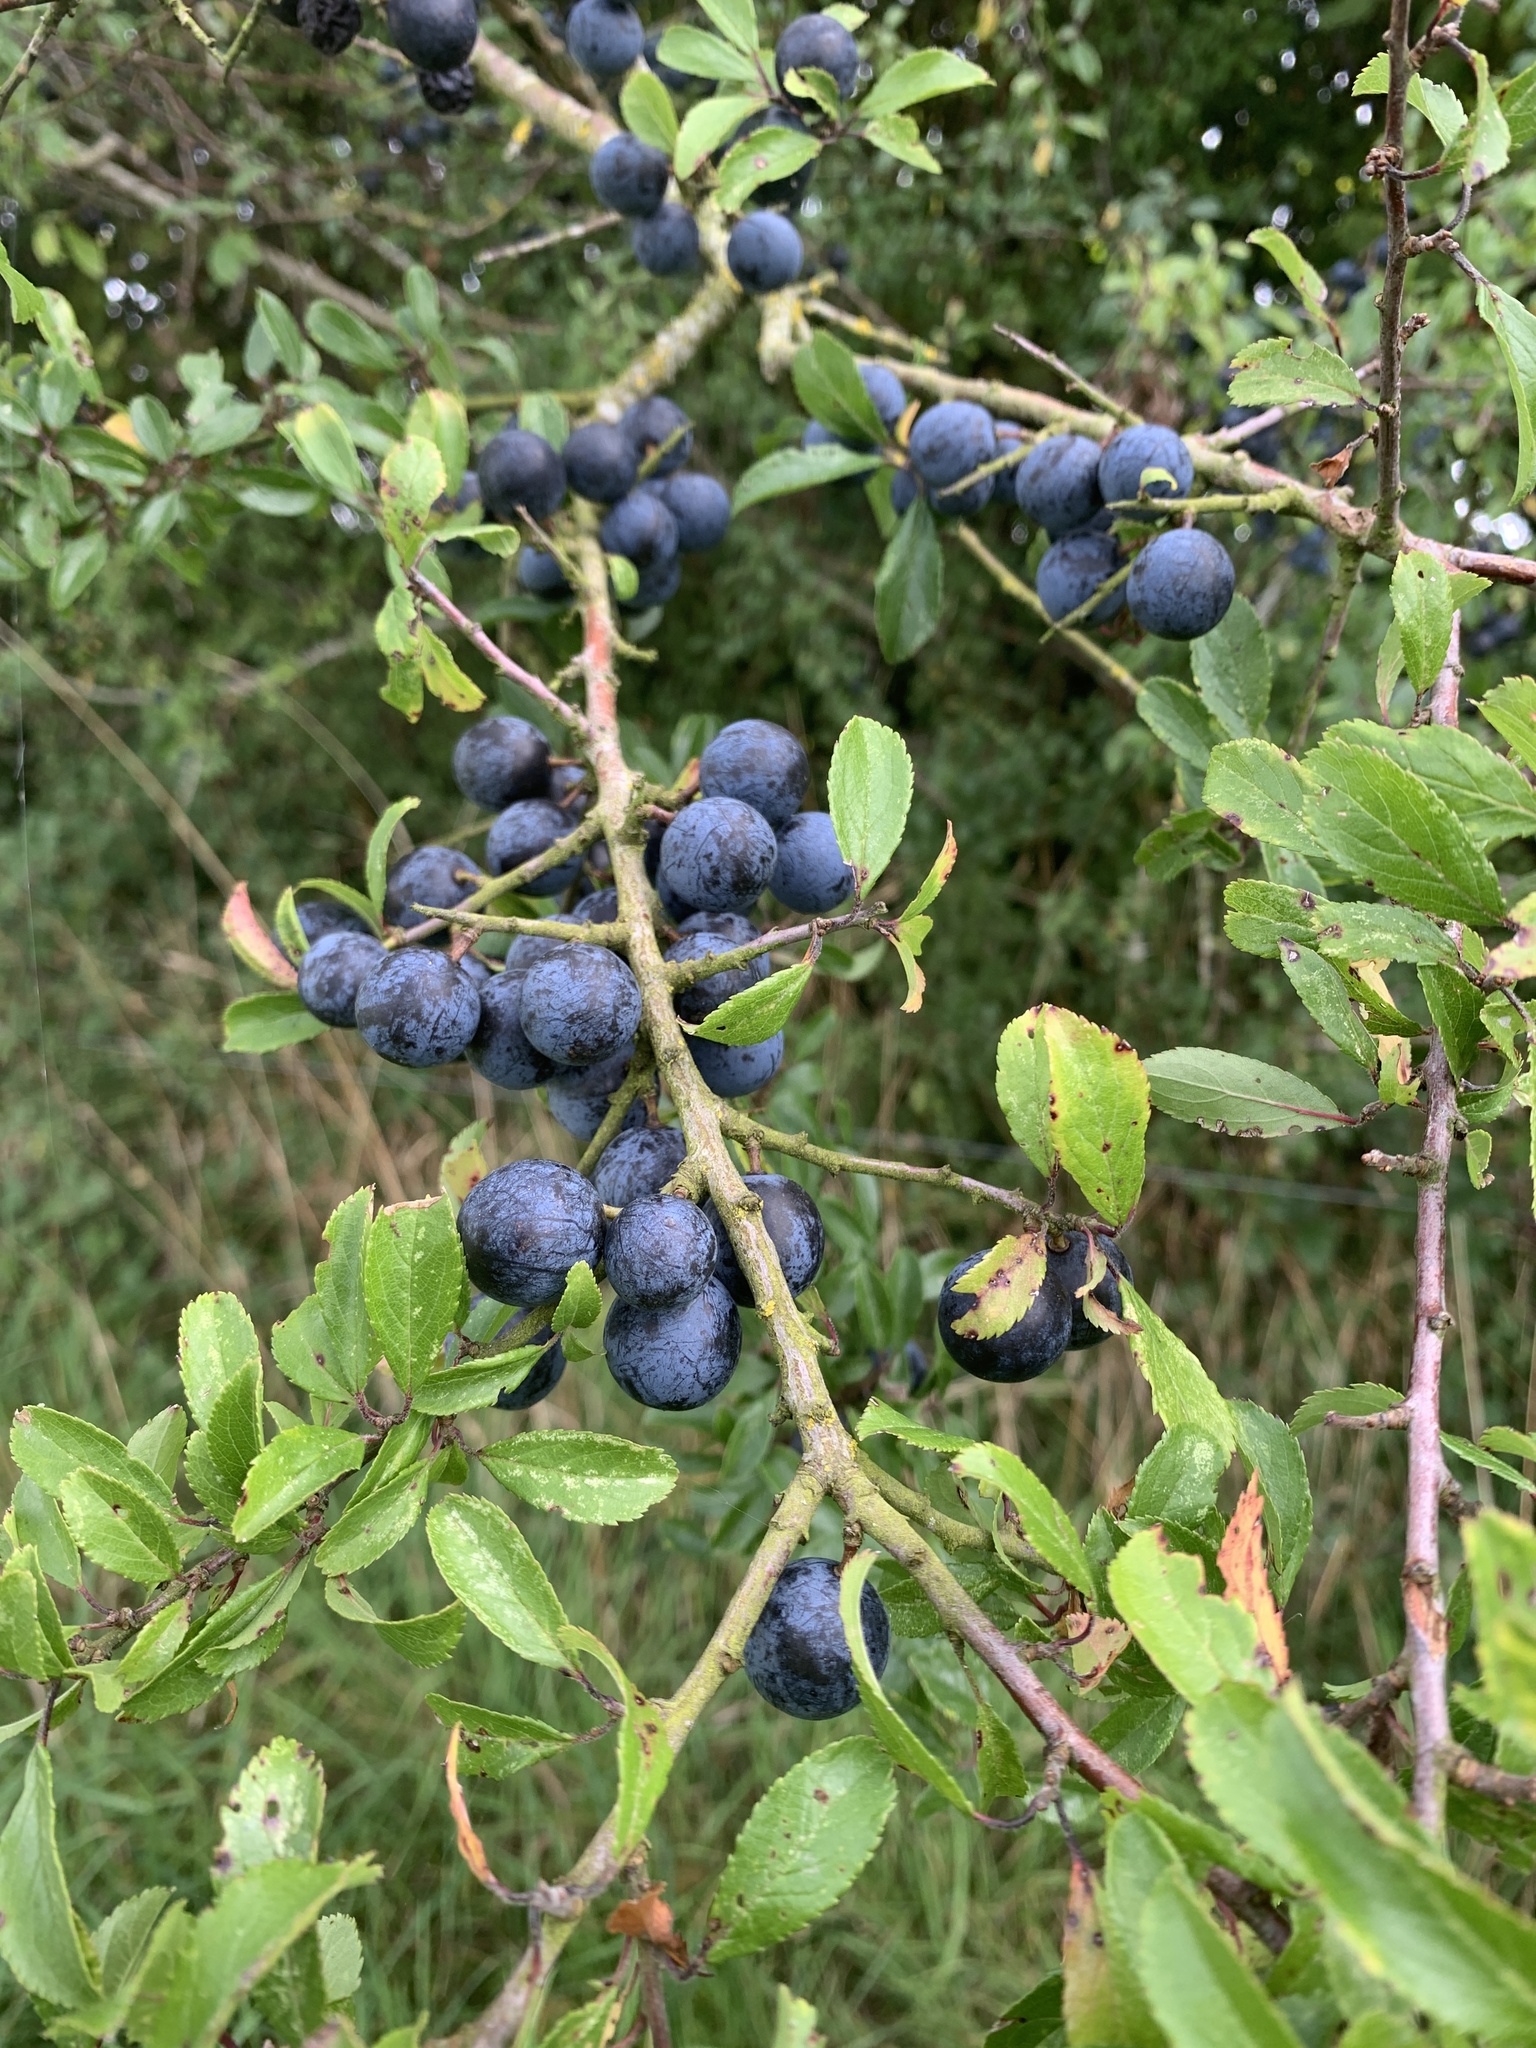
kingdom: Plantae
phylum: Tracheophyta
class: Magnoliopsida
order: Rosales
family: Rosaceae
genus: Prunus
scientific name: Prunus spinosa
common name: Blackthorn
